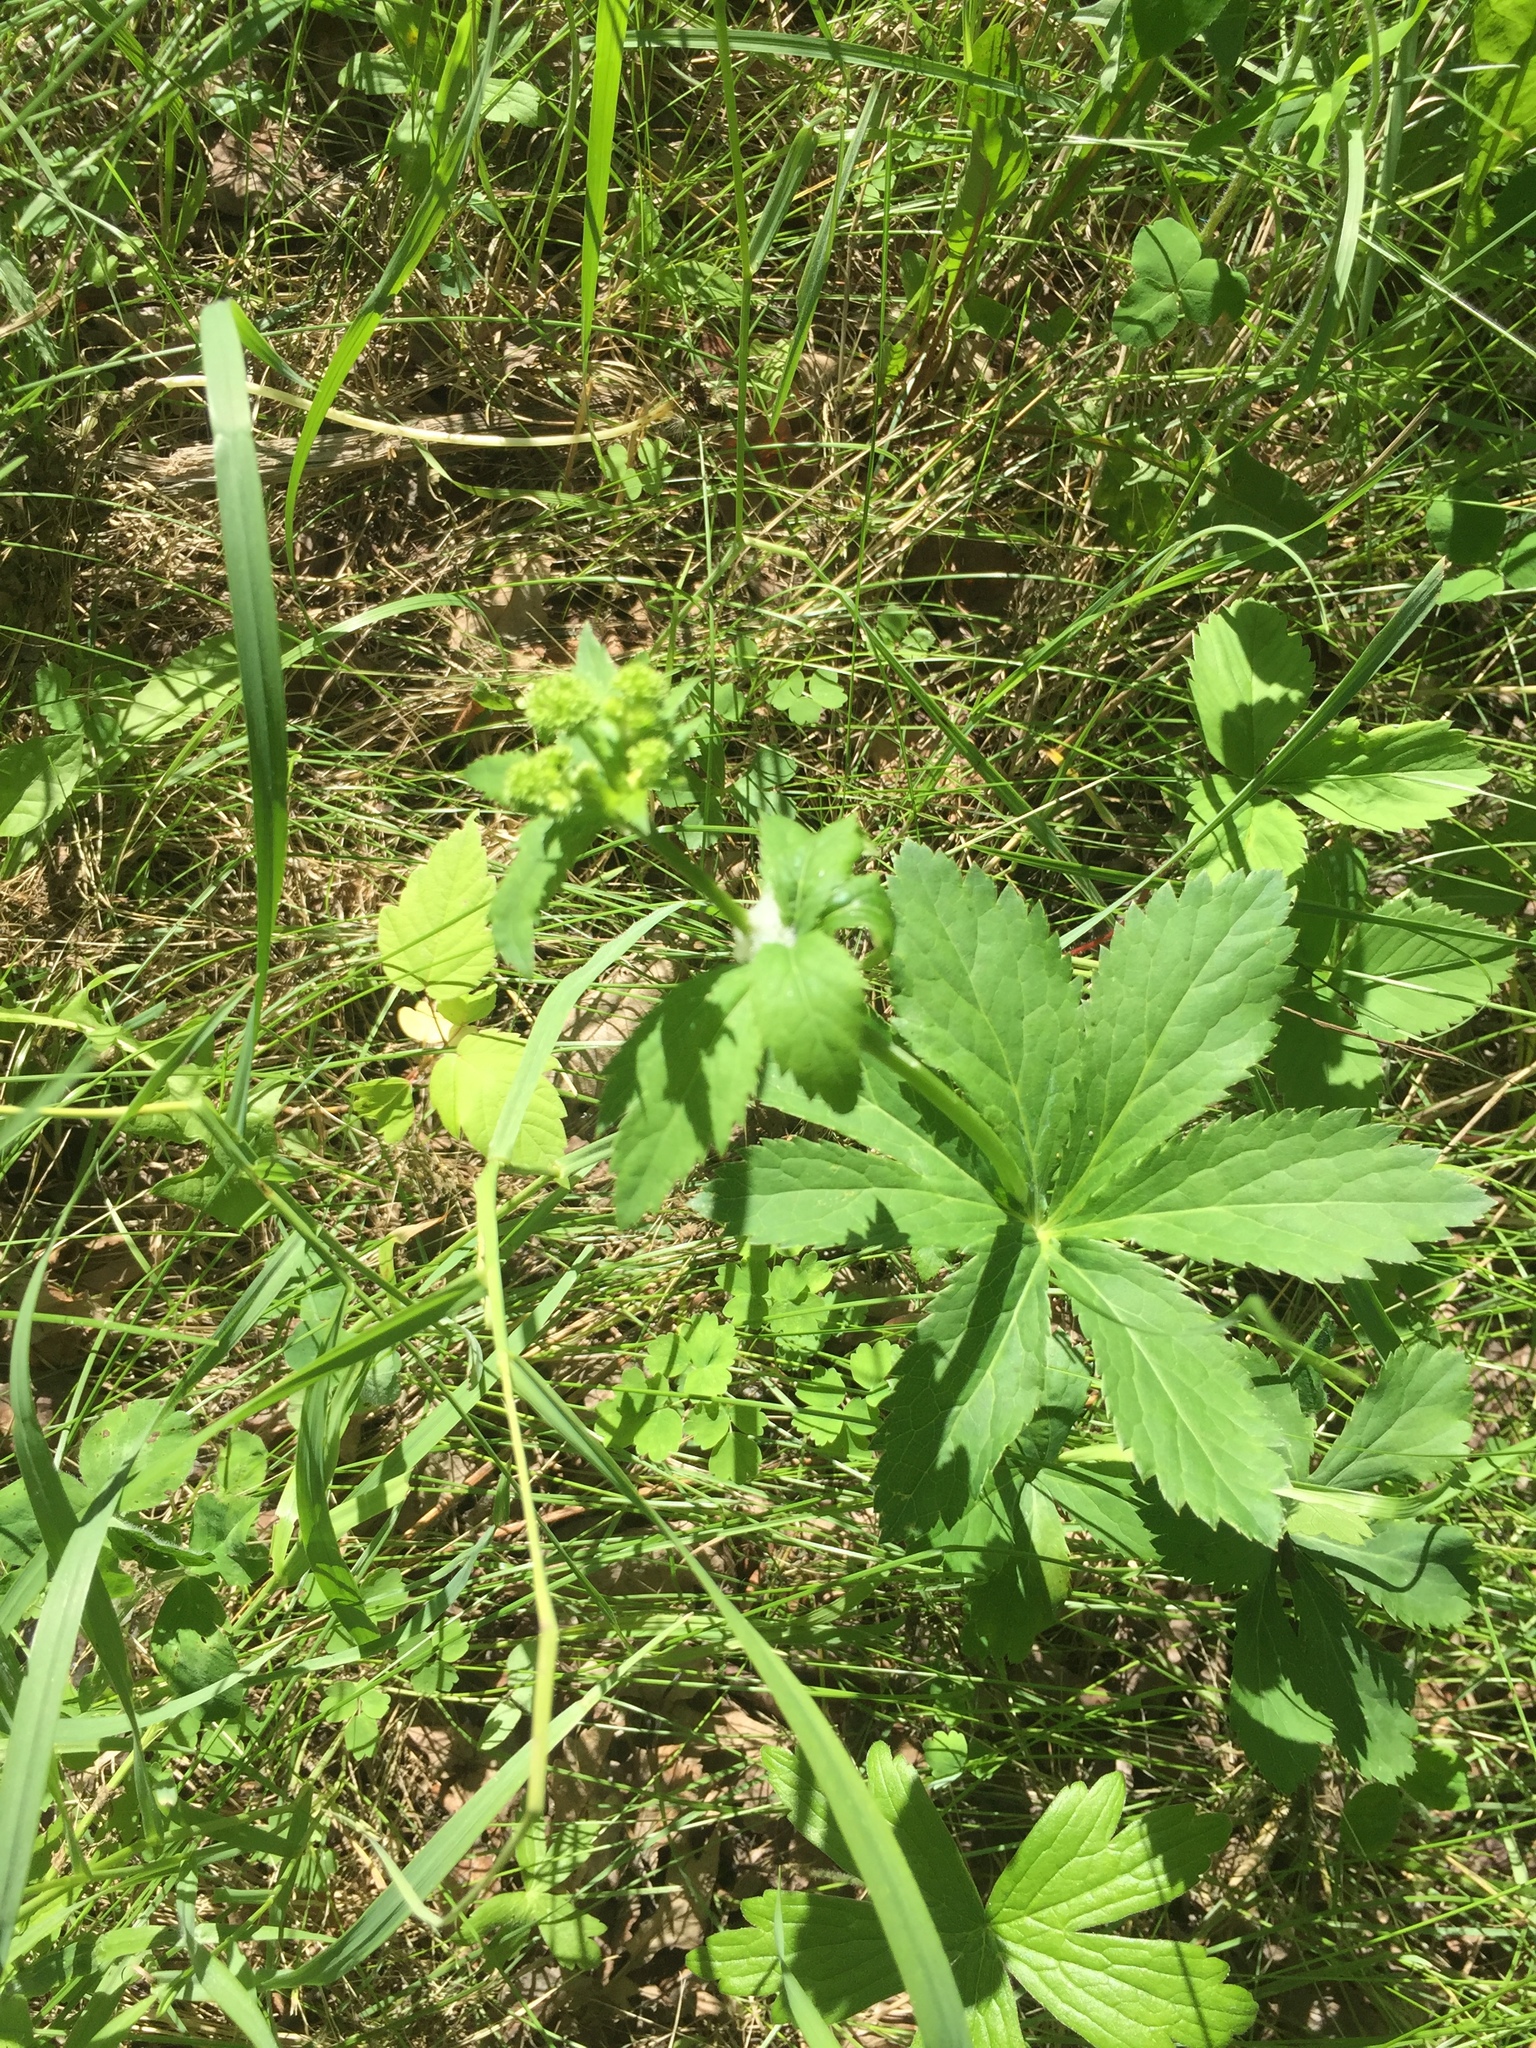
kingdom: Plantae
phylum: Tracheophyta
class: Magnoliopsida
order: Apiales
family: Apiaceae
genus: Sanicula
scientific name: Sanicula marilandica
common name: Black snakeroot
